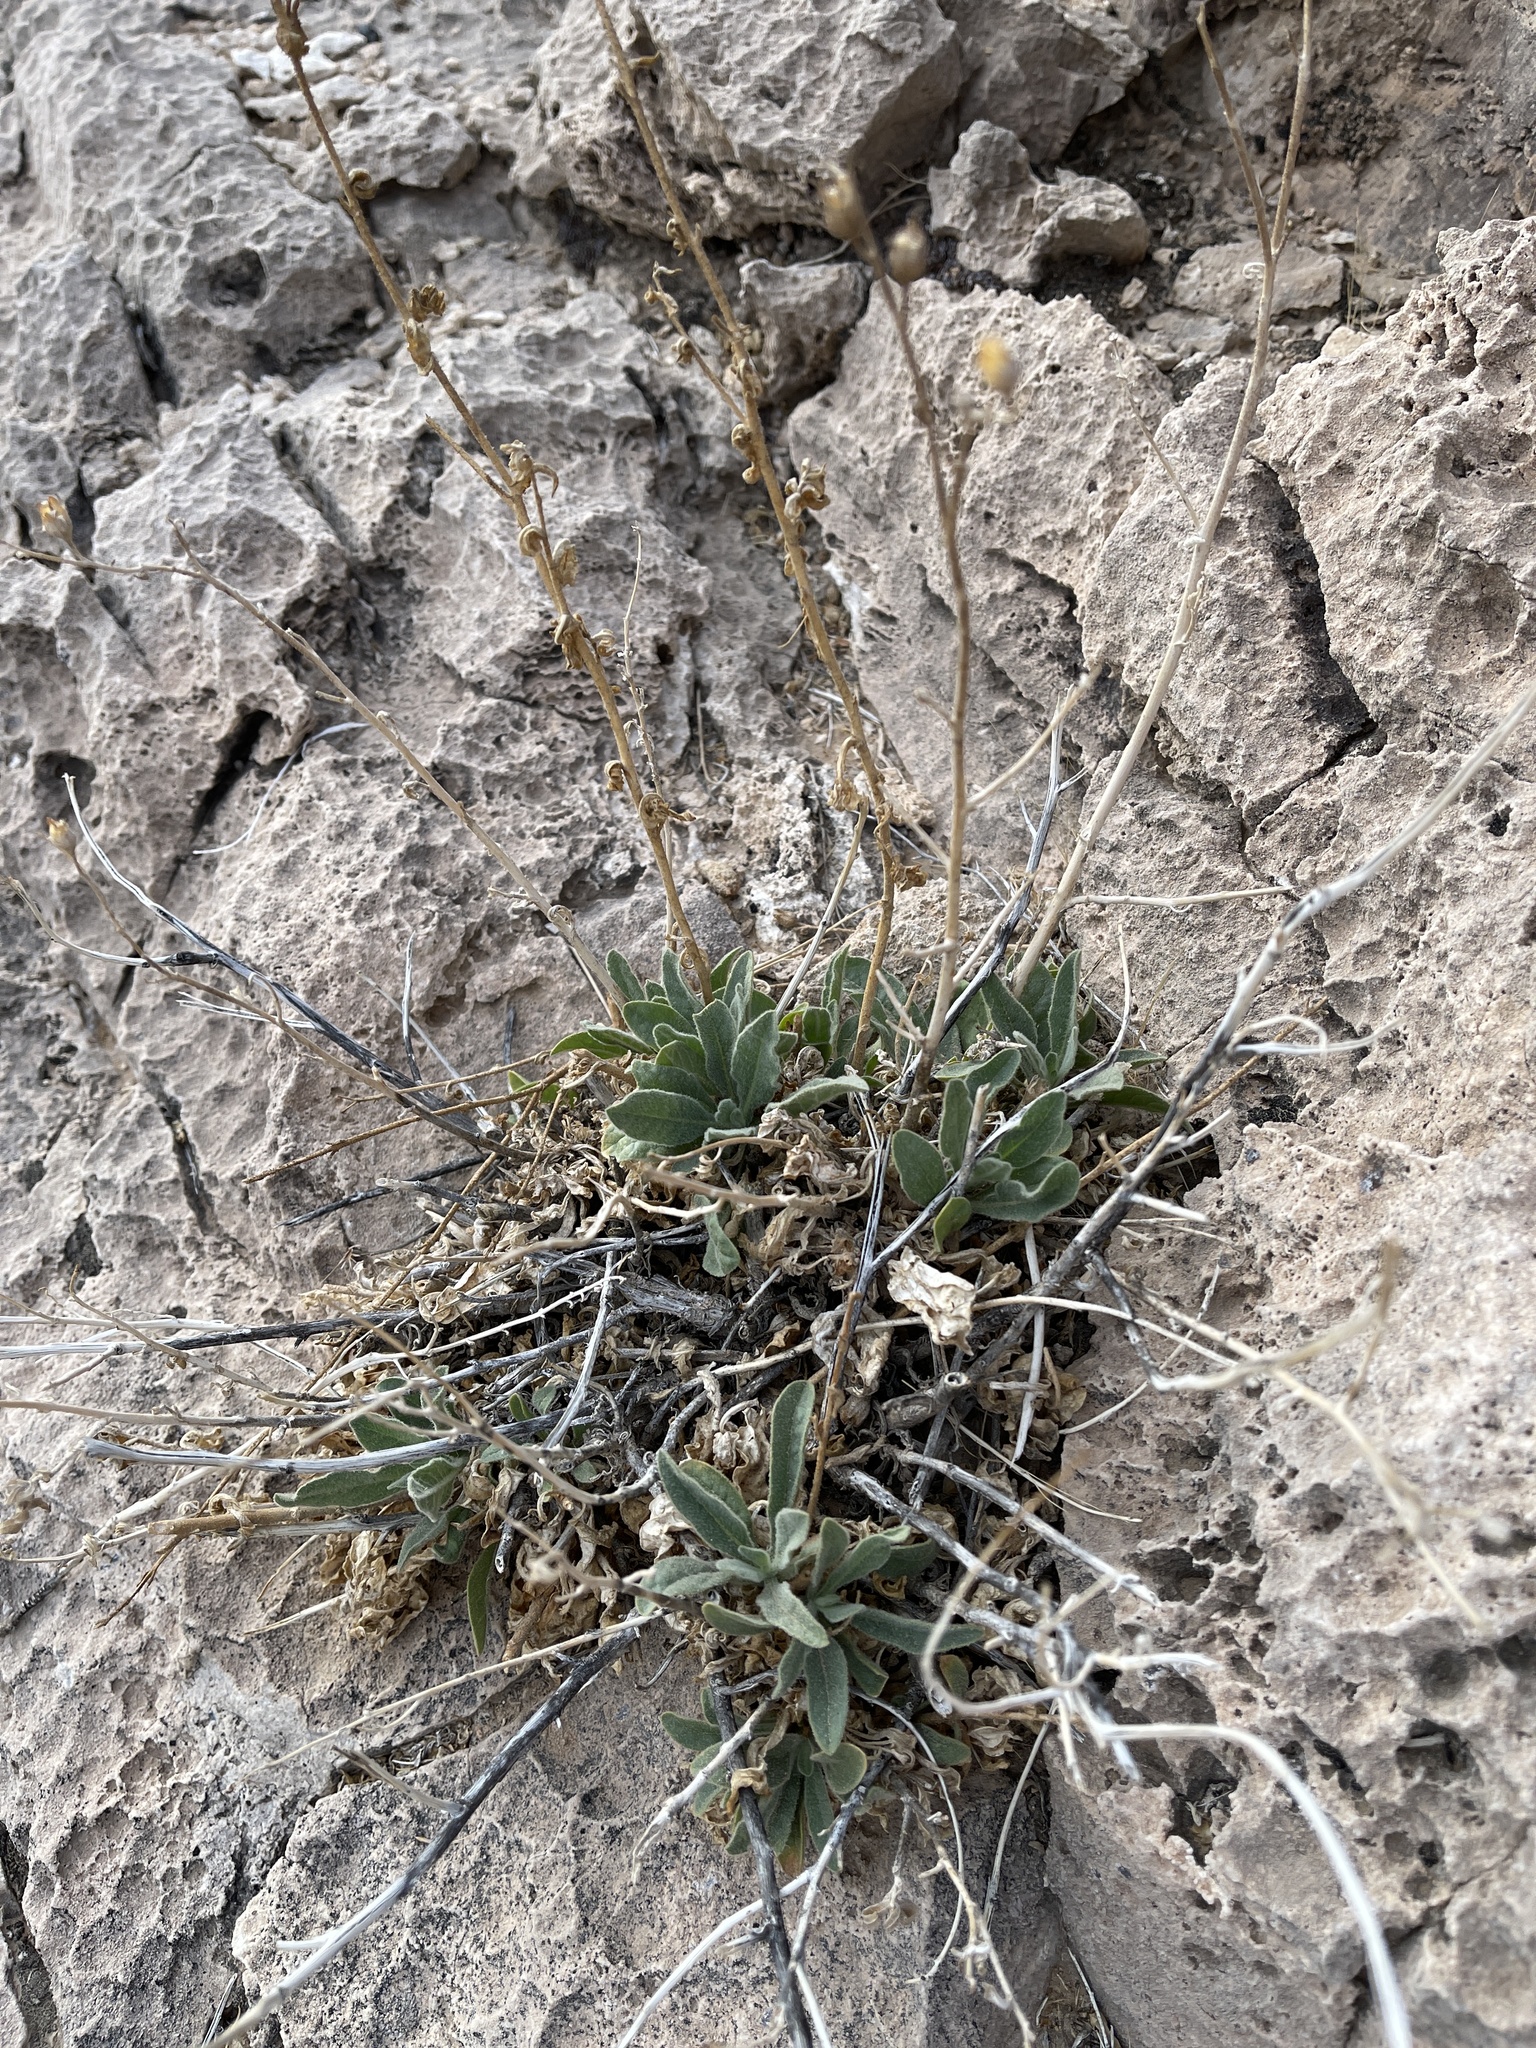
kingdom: Plantae
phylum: Tracheophyta
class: Magnoliopsida
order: Solanales
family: Solanaceae
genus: Nicotiana
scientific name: Nicotiana obtusifolia
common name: Desert tobacco
